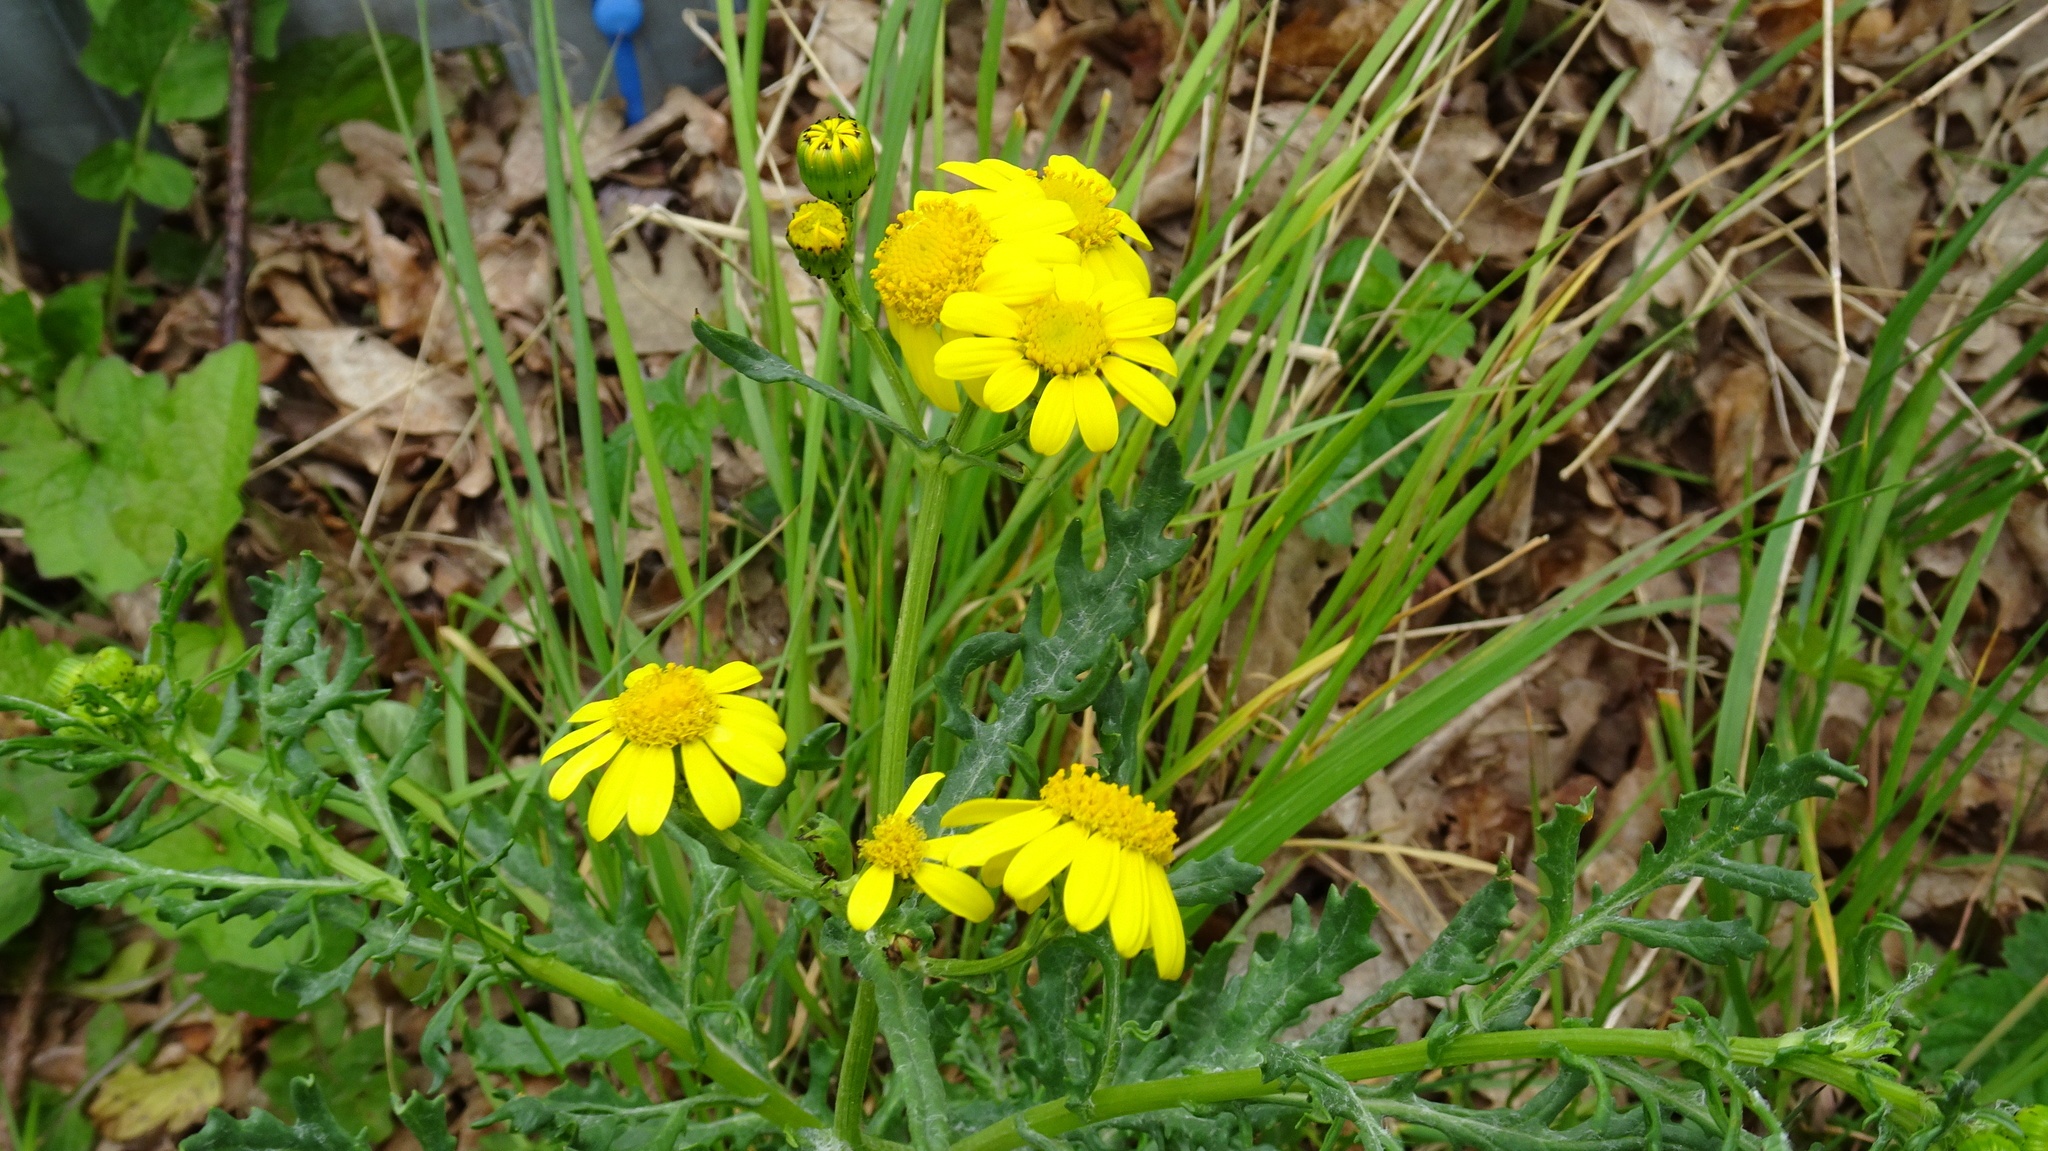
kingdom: Plantae
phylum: Tracheophyta
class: Magnoliopsida
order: Asterales
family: Asteraceae
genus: Senecio
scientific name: Senecio squalidus
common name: Oxford ragwort
